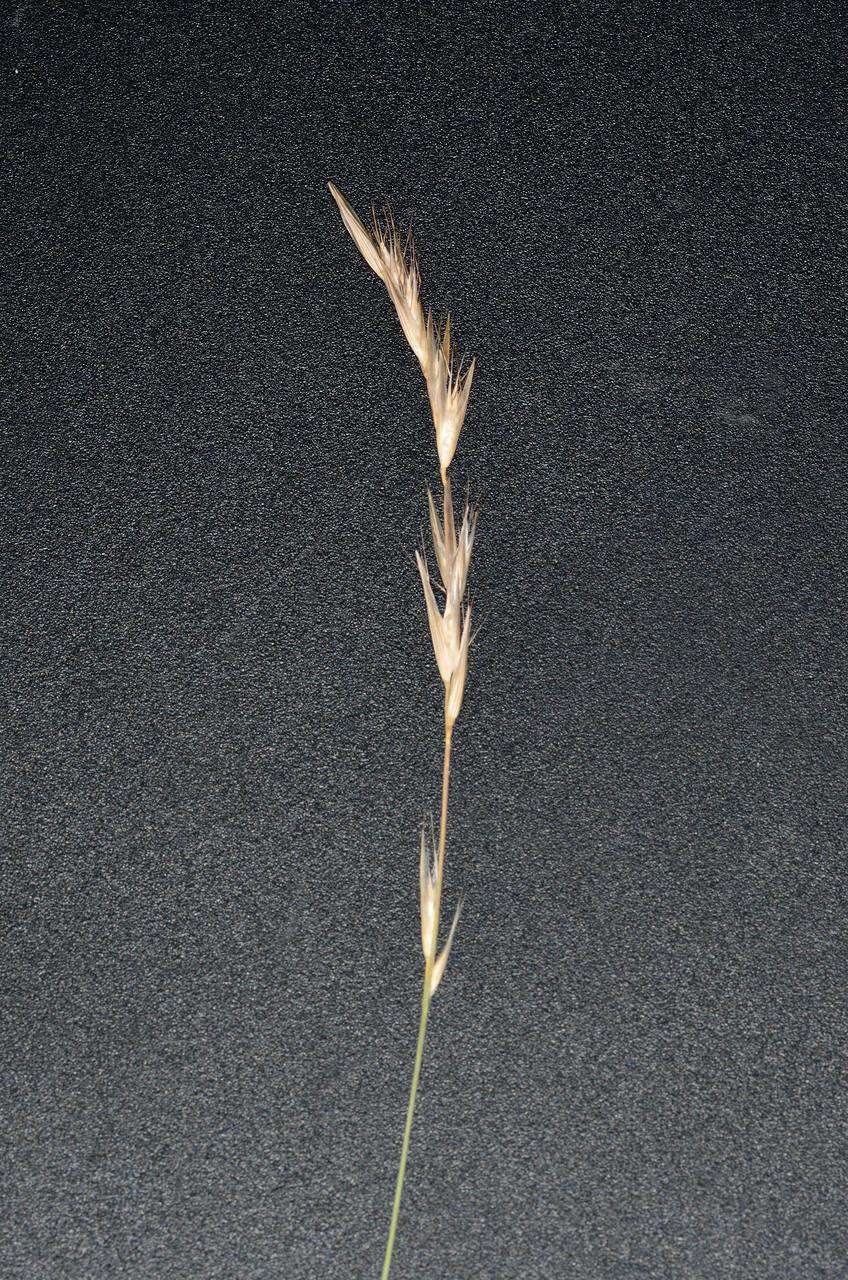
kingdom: Plantae
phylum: Tracheophyta
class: Liliopsida
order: Poales
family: Poaceae
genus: Rytidosperma
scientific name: Rytidosperma racemosum
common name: Wallaby-grass
